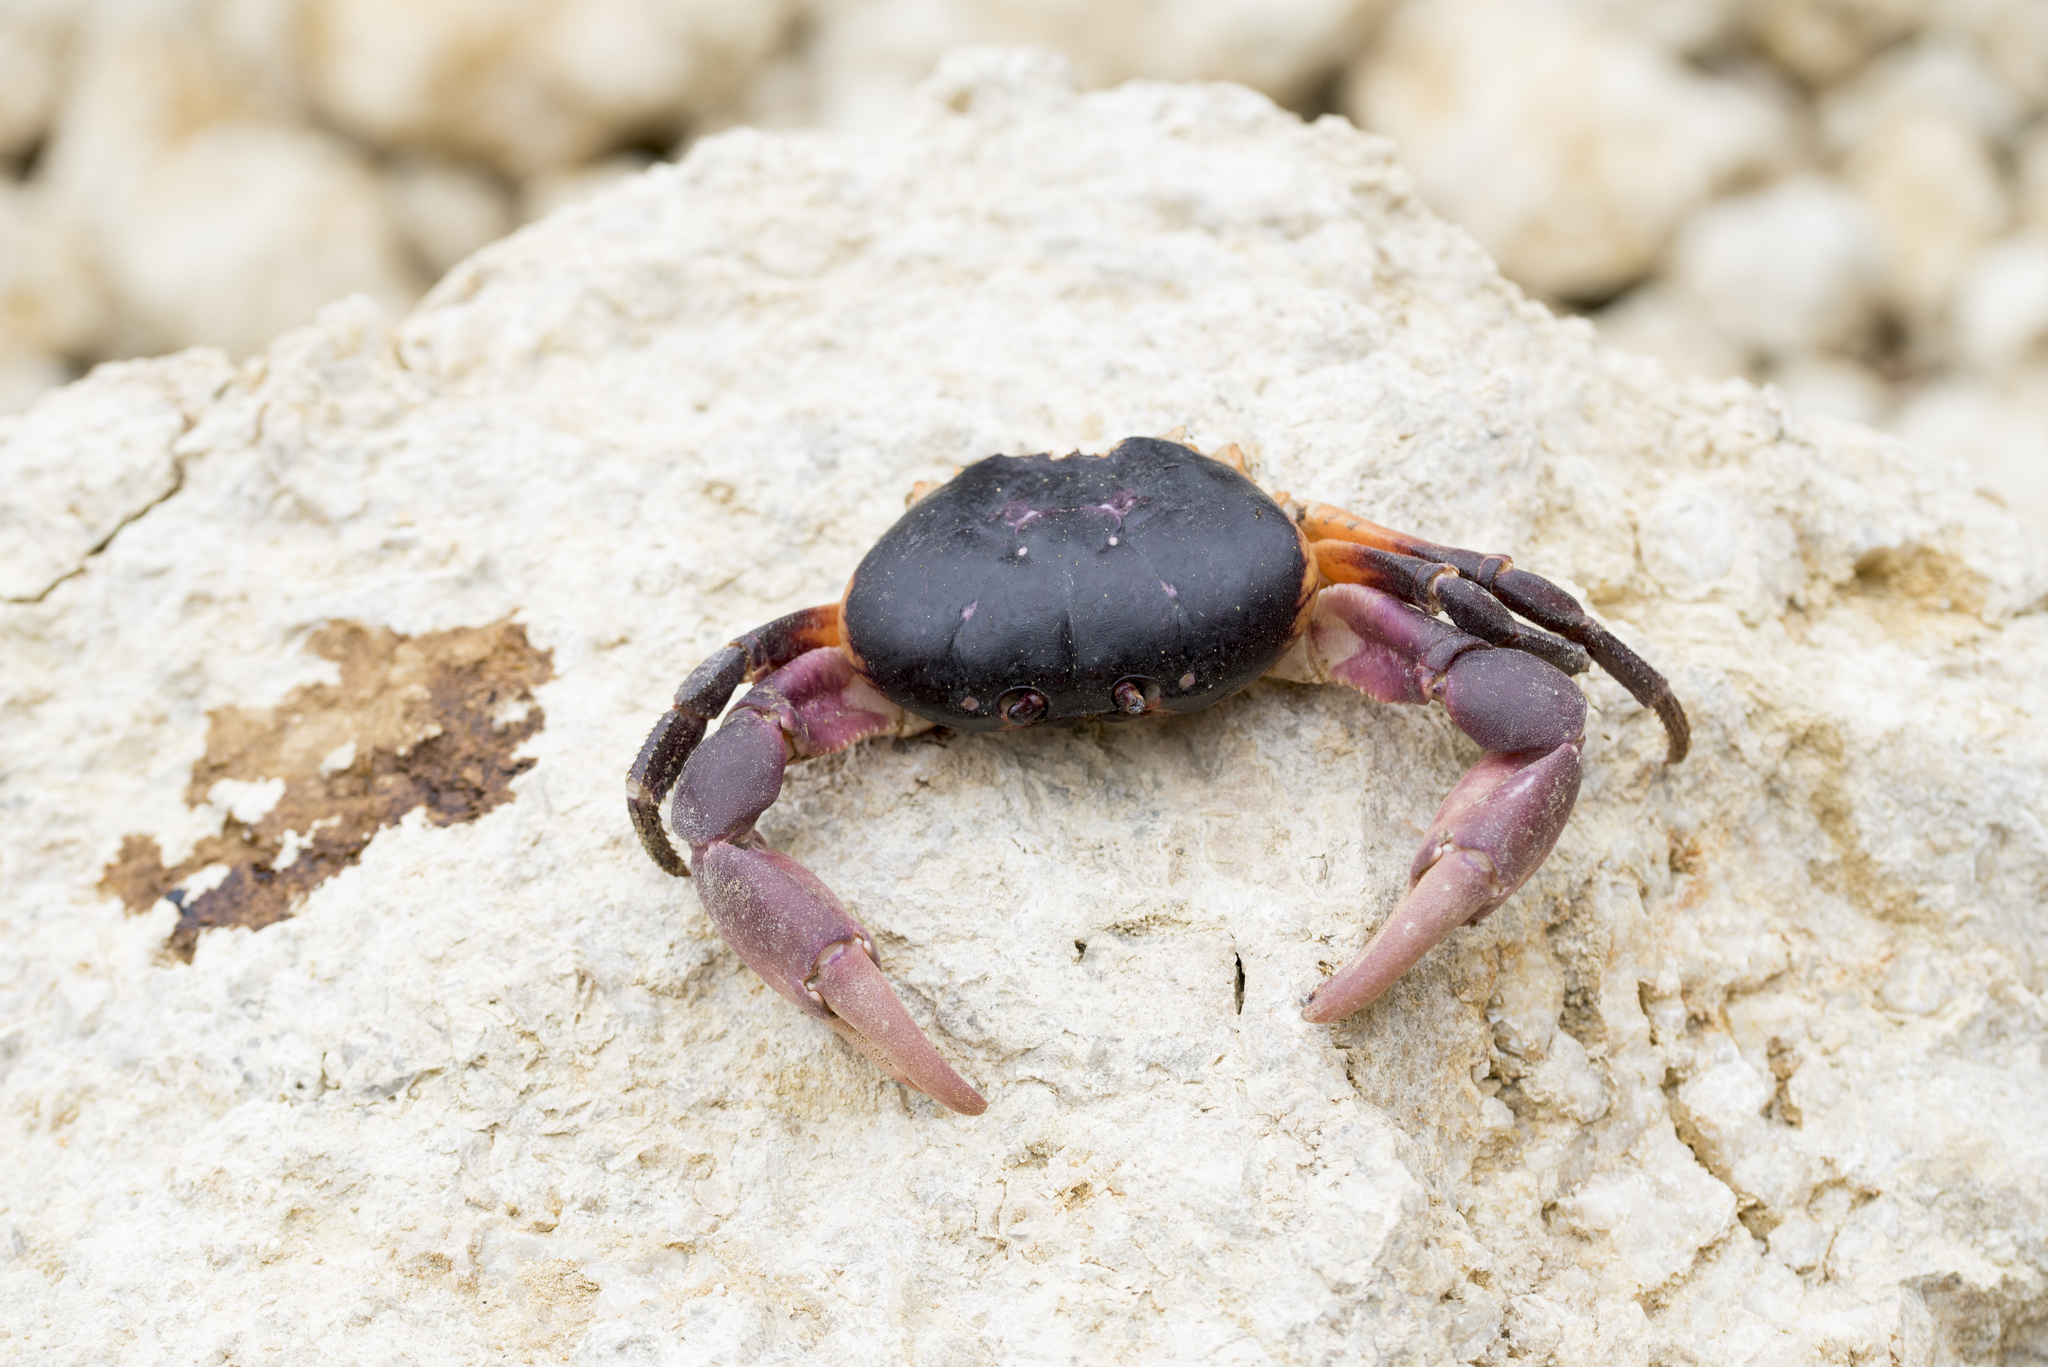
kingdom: Animalia
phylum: Arthropoda
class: Malacostraca
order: Decapoda
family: Gecarcinidae
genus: Gecarcoidea
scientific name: Gecarcoidea lalandii
